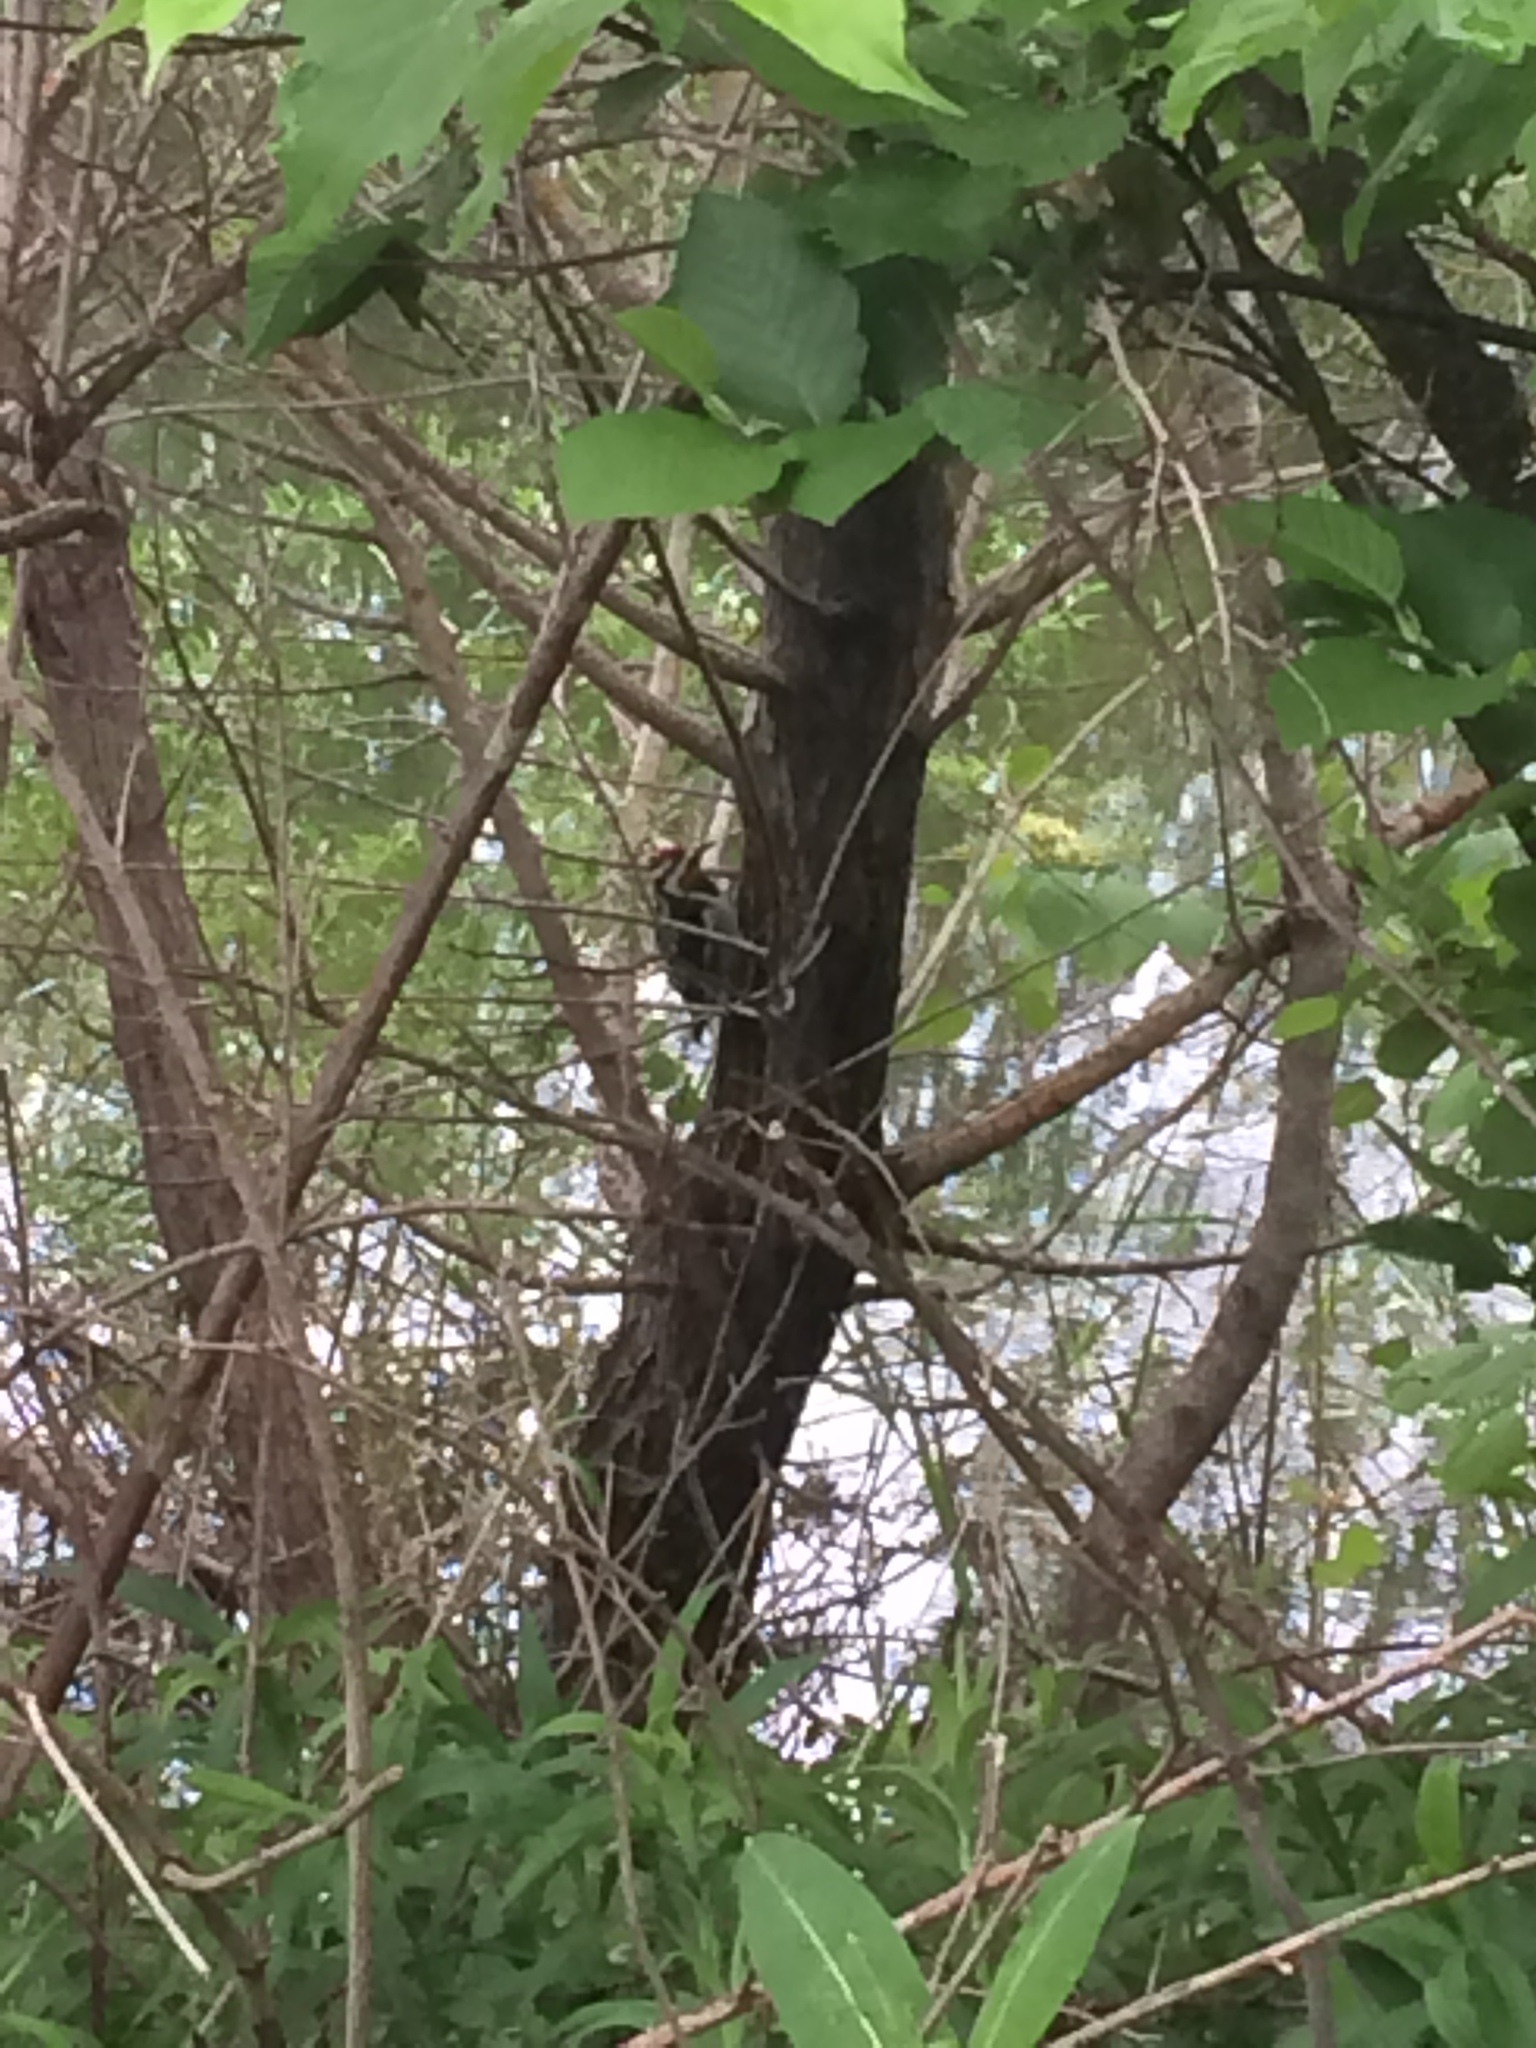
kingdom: Animalia
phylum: Chordata
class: Aves
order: Piciformes
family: Picidae
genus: Sphyrapicus
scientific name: Sphyrapicus varius
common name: Yellow-bellied sapsucker
